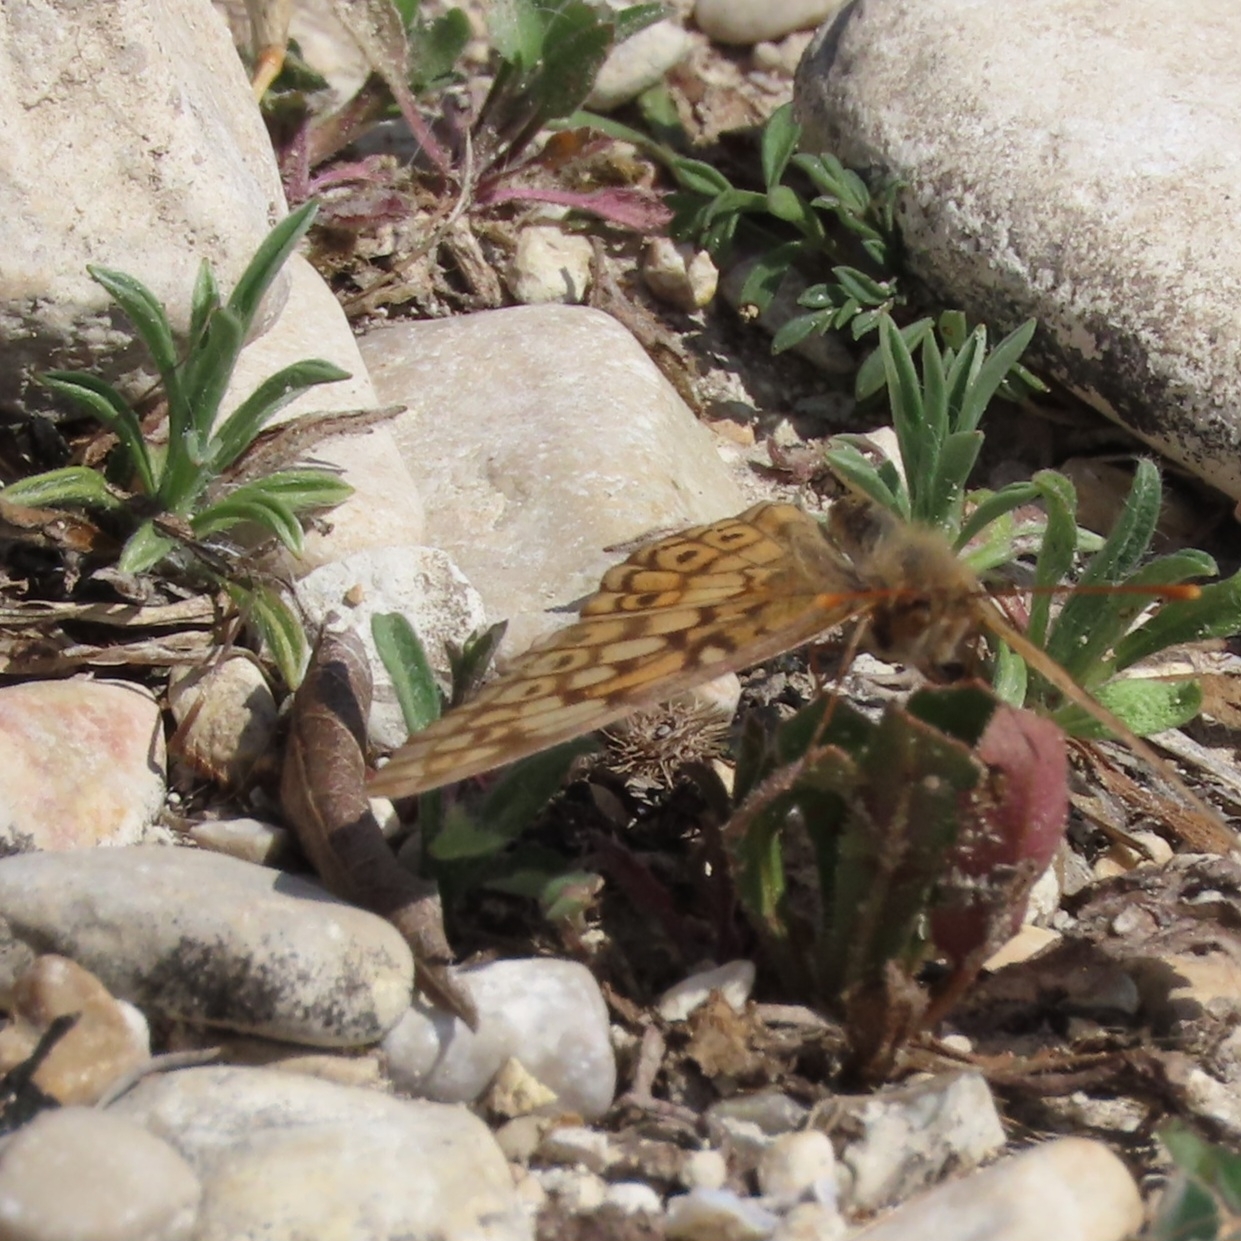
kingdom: Animalia
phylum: Arthropoda
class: Insecta
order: Lepidoptera
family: Nymphalidae
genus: Euptoieta
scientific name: Euptoieta claudia
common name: Variegated fritillary
